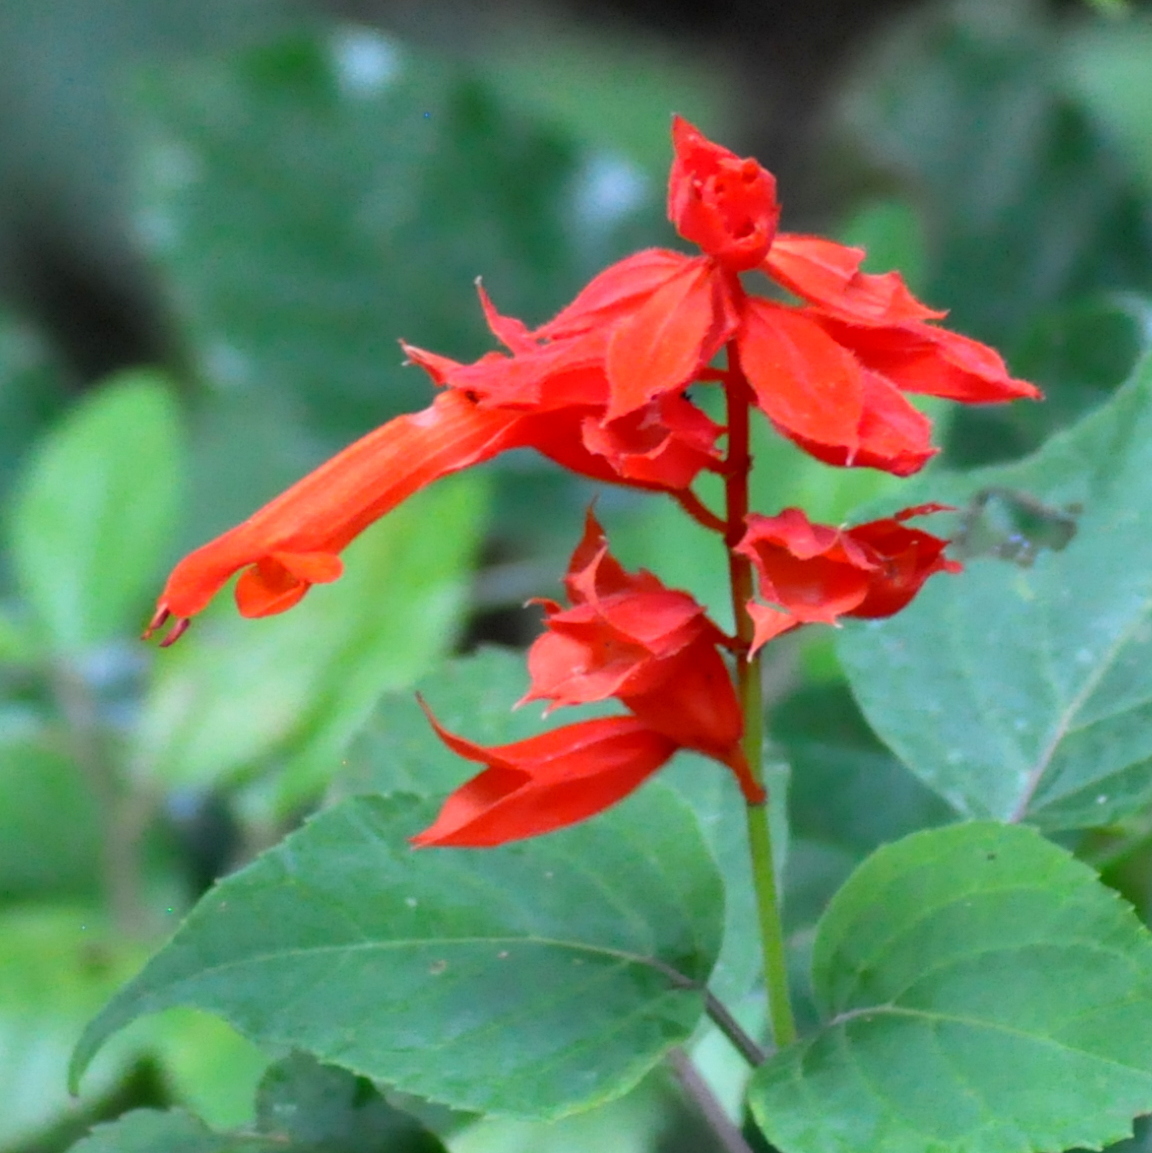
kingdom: Plantae
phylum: Tracheophyta
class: Magnoliopsida
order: Lamiales
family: Lamiaceae
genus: Salvia
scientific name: Salvia splendens
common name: Scarlet sage
